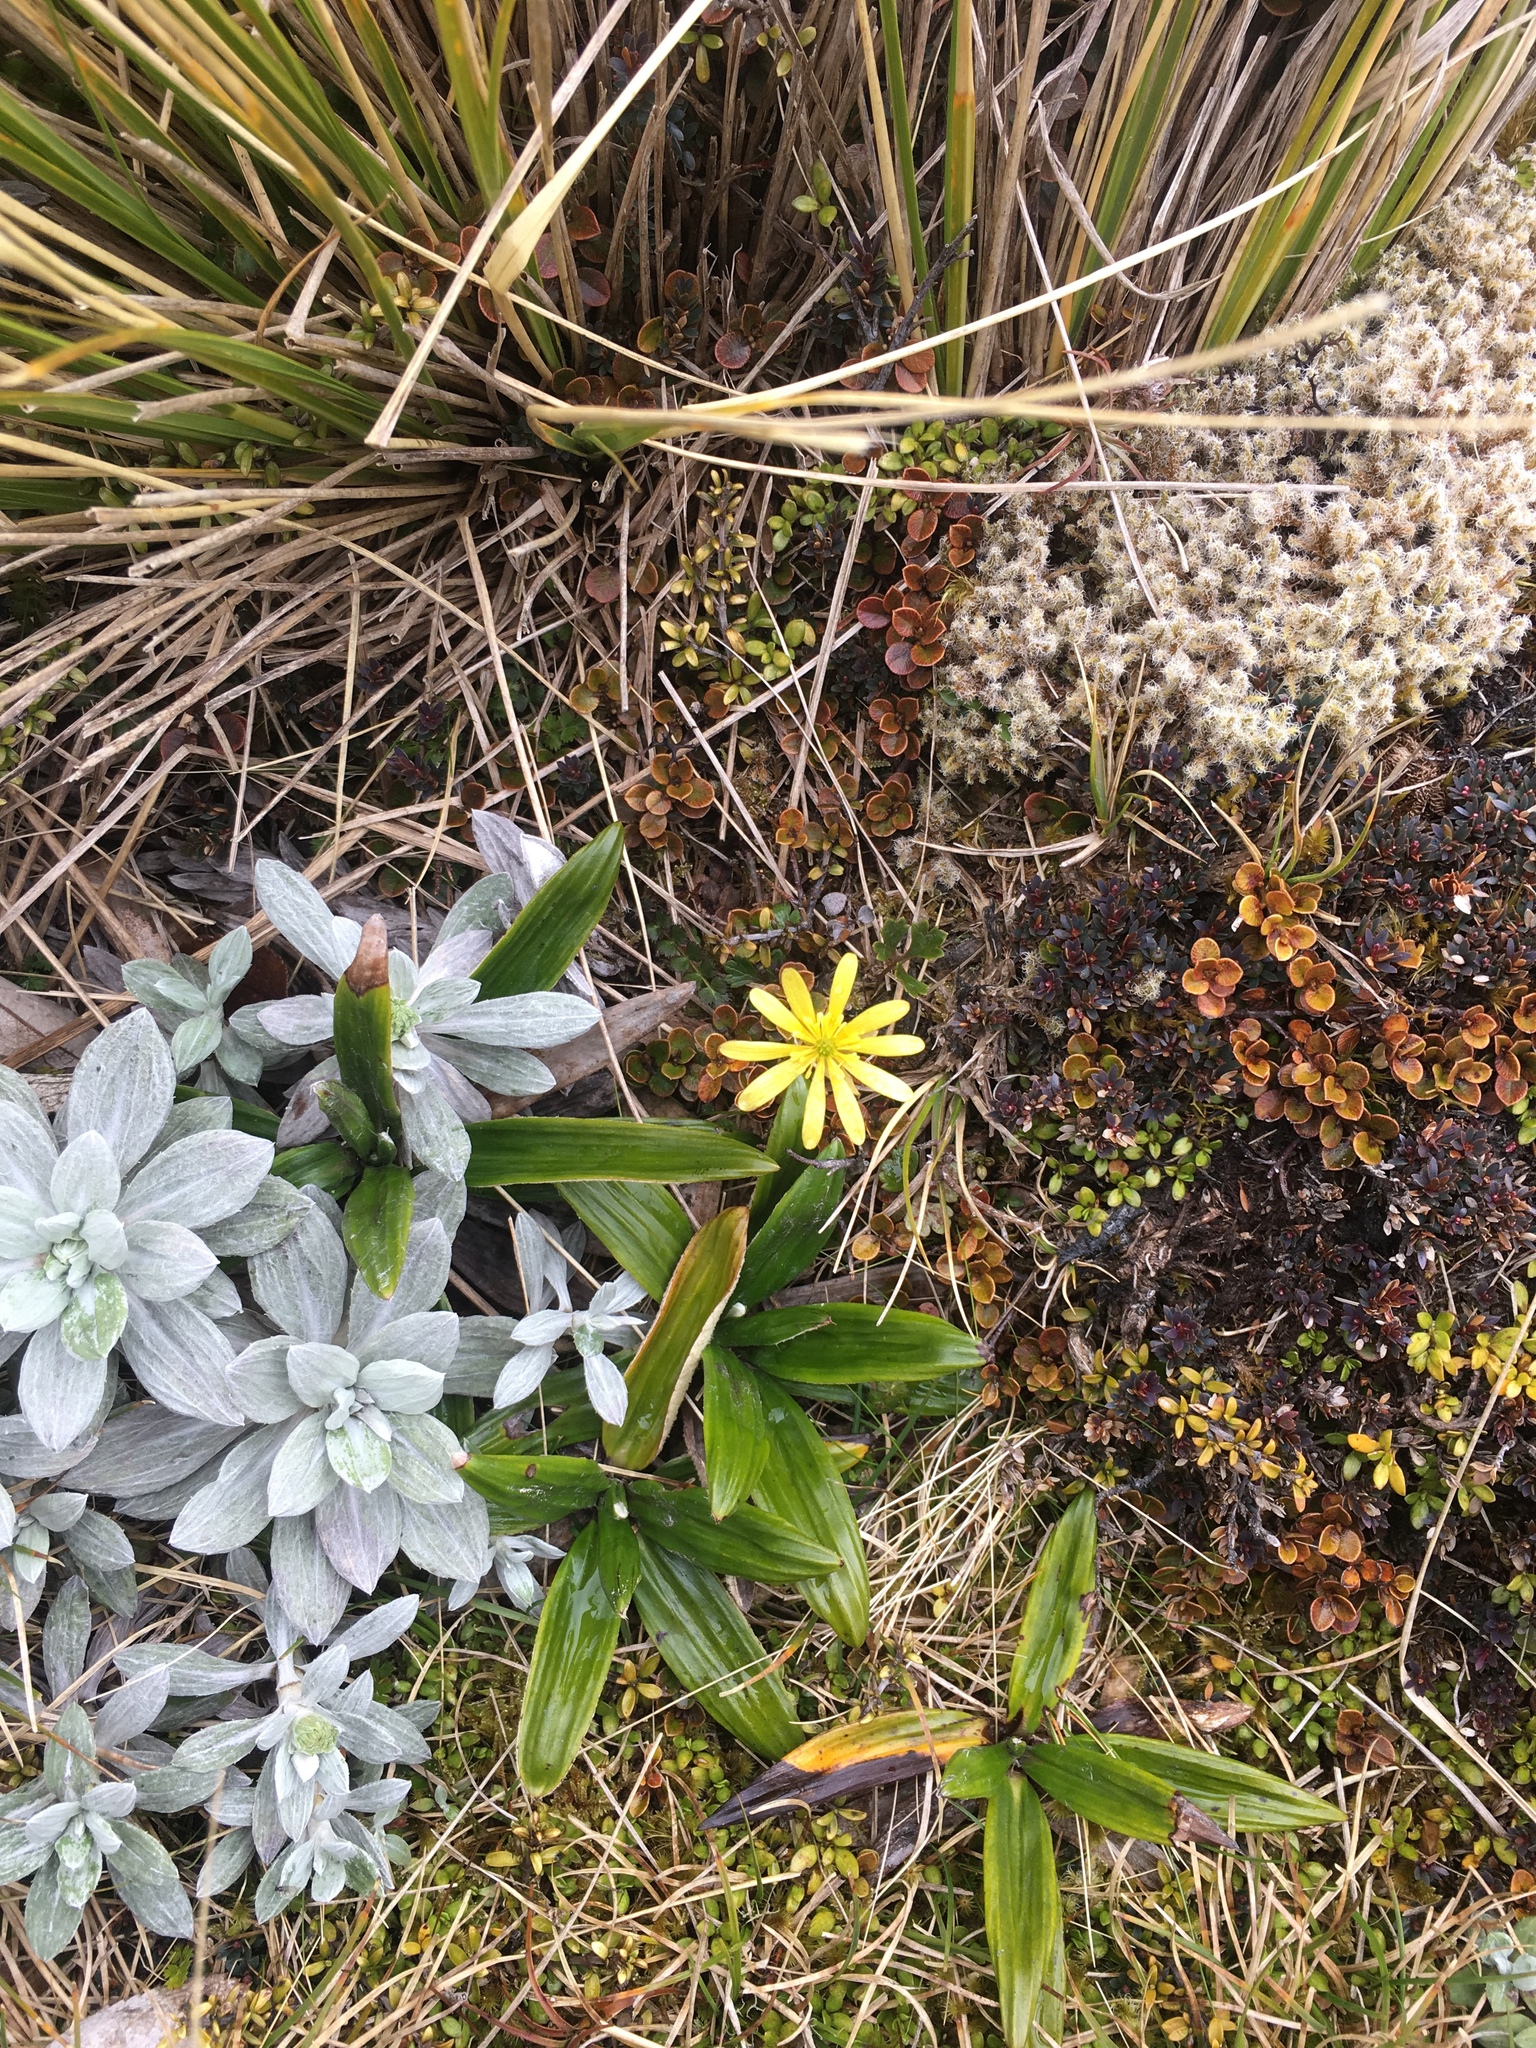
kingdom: Plantae
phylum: Tracheophyta
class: Magnoliopsida
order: Ranunculales
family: Ranunculaceae
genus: Ranunculus
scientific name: Ranunculus verticillatus
